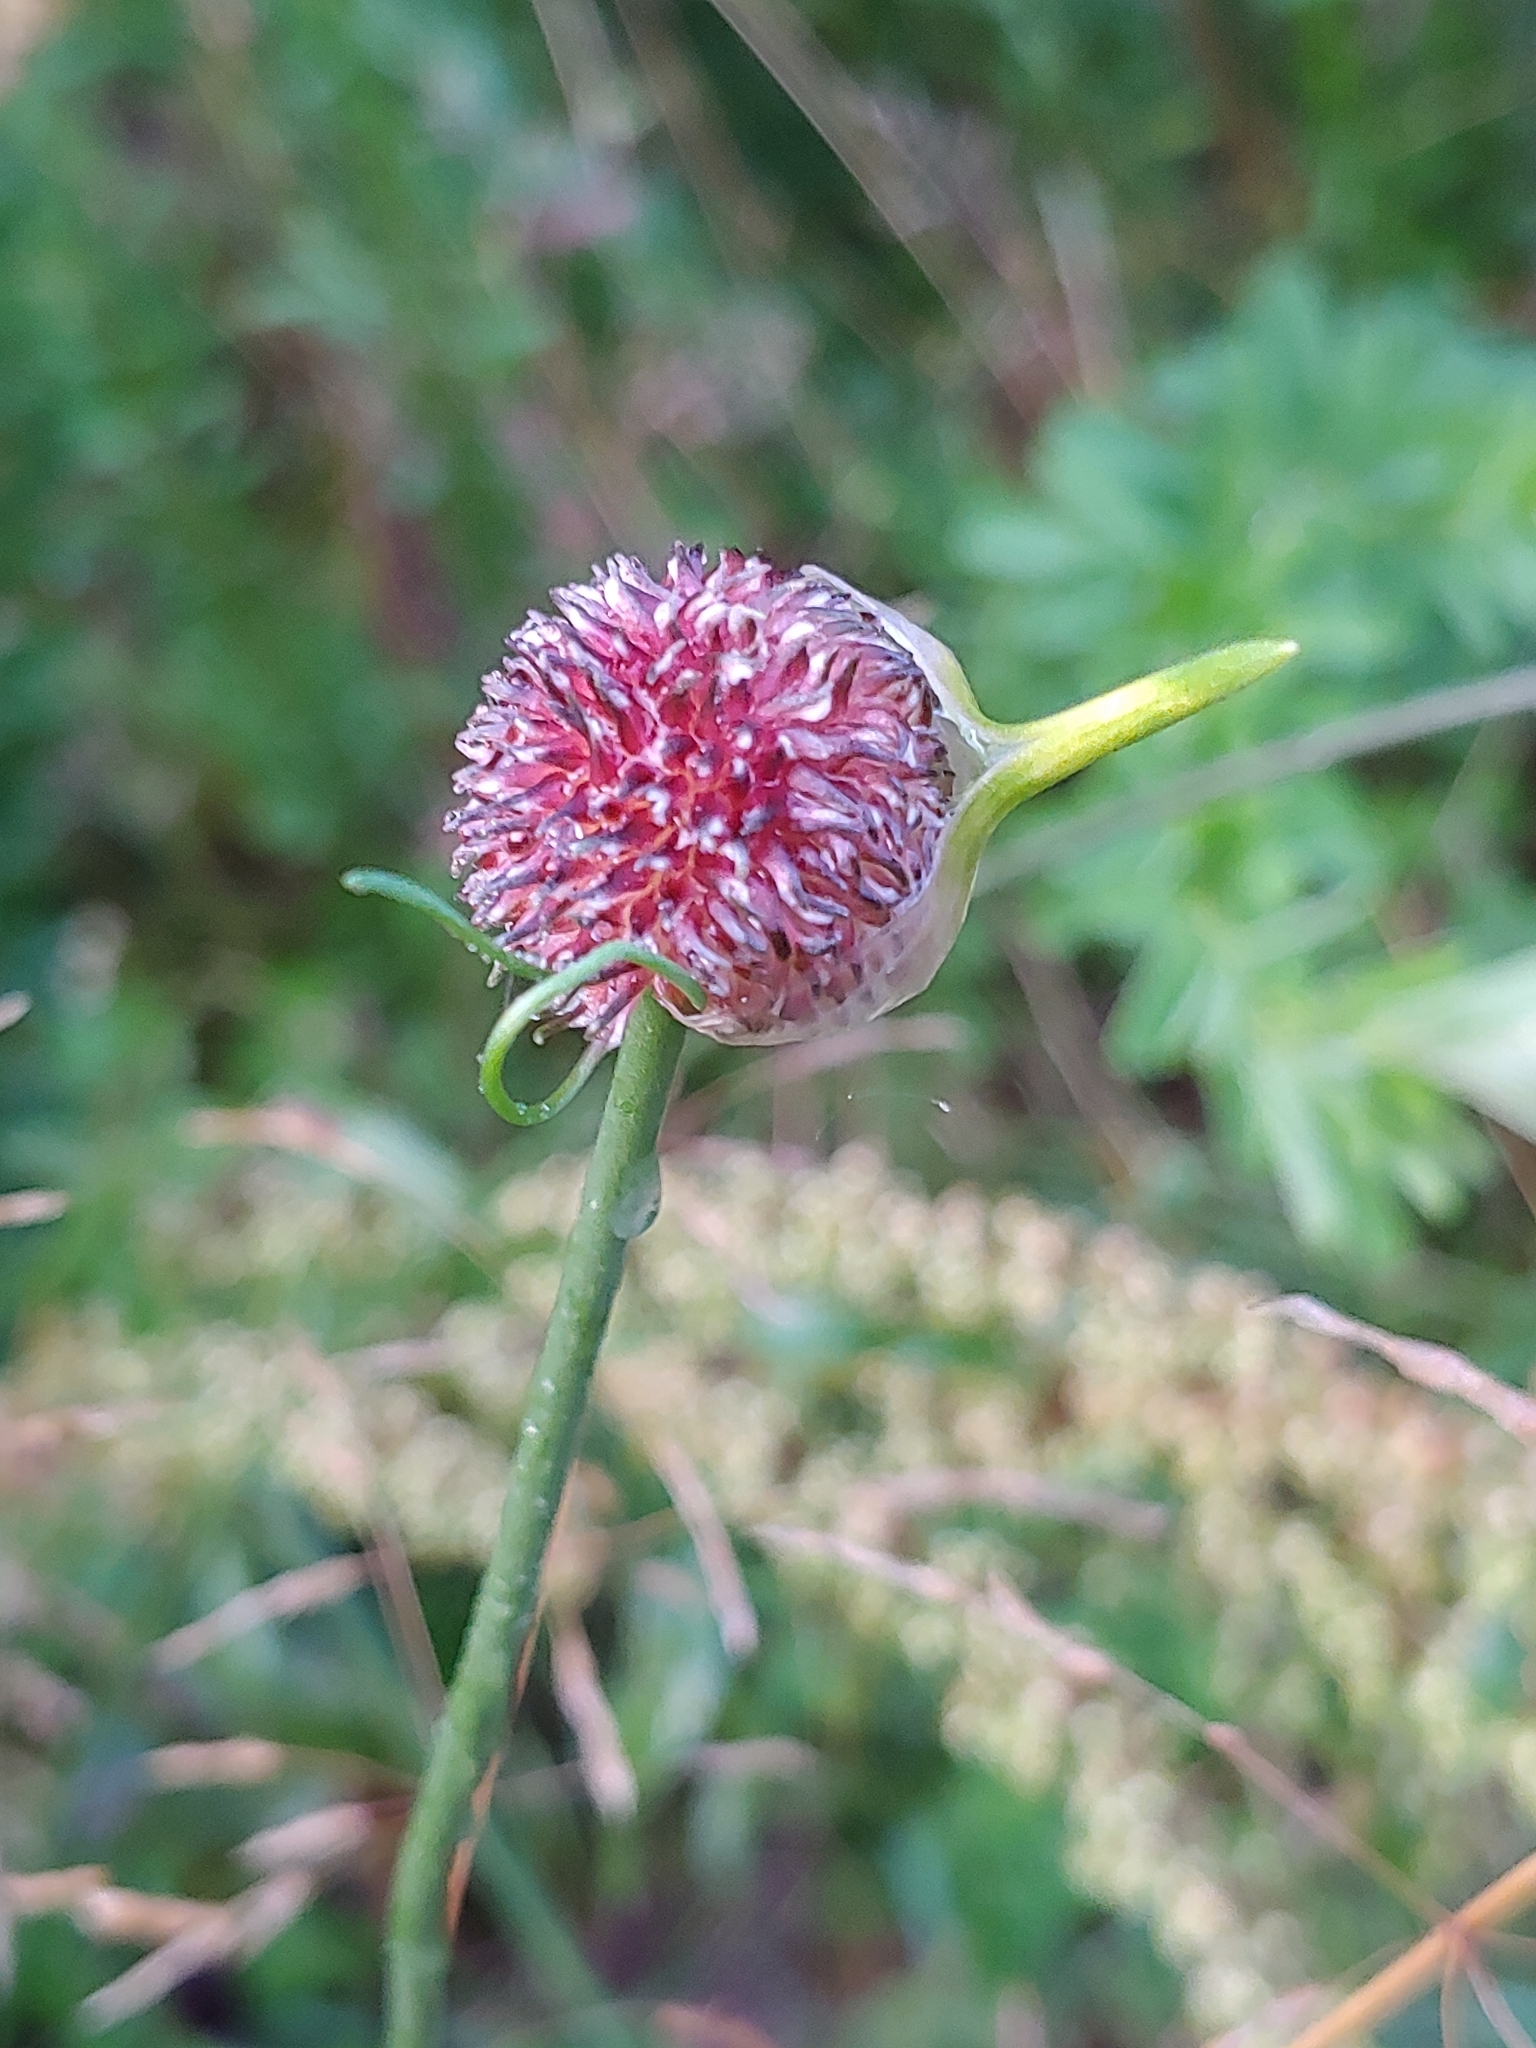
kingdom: Plantae
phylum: Tracheophyta
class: Liliopsida
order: Asparagales
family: Amaryllidaceae
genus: Allium
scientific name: Allium vineale
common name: Crow garlic
